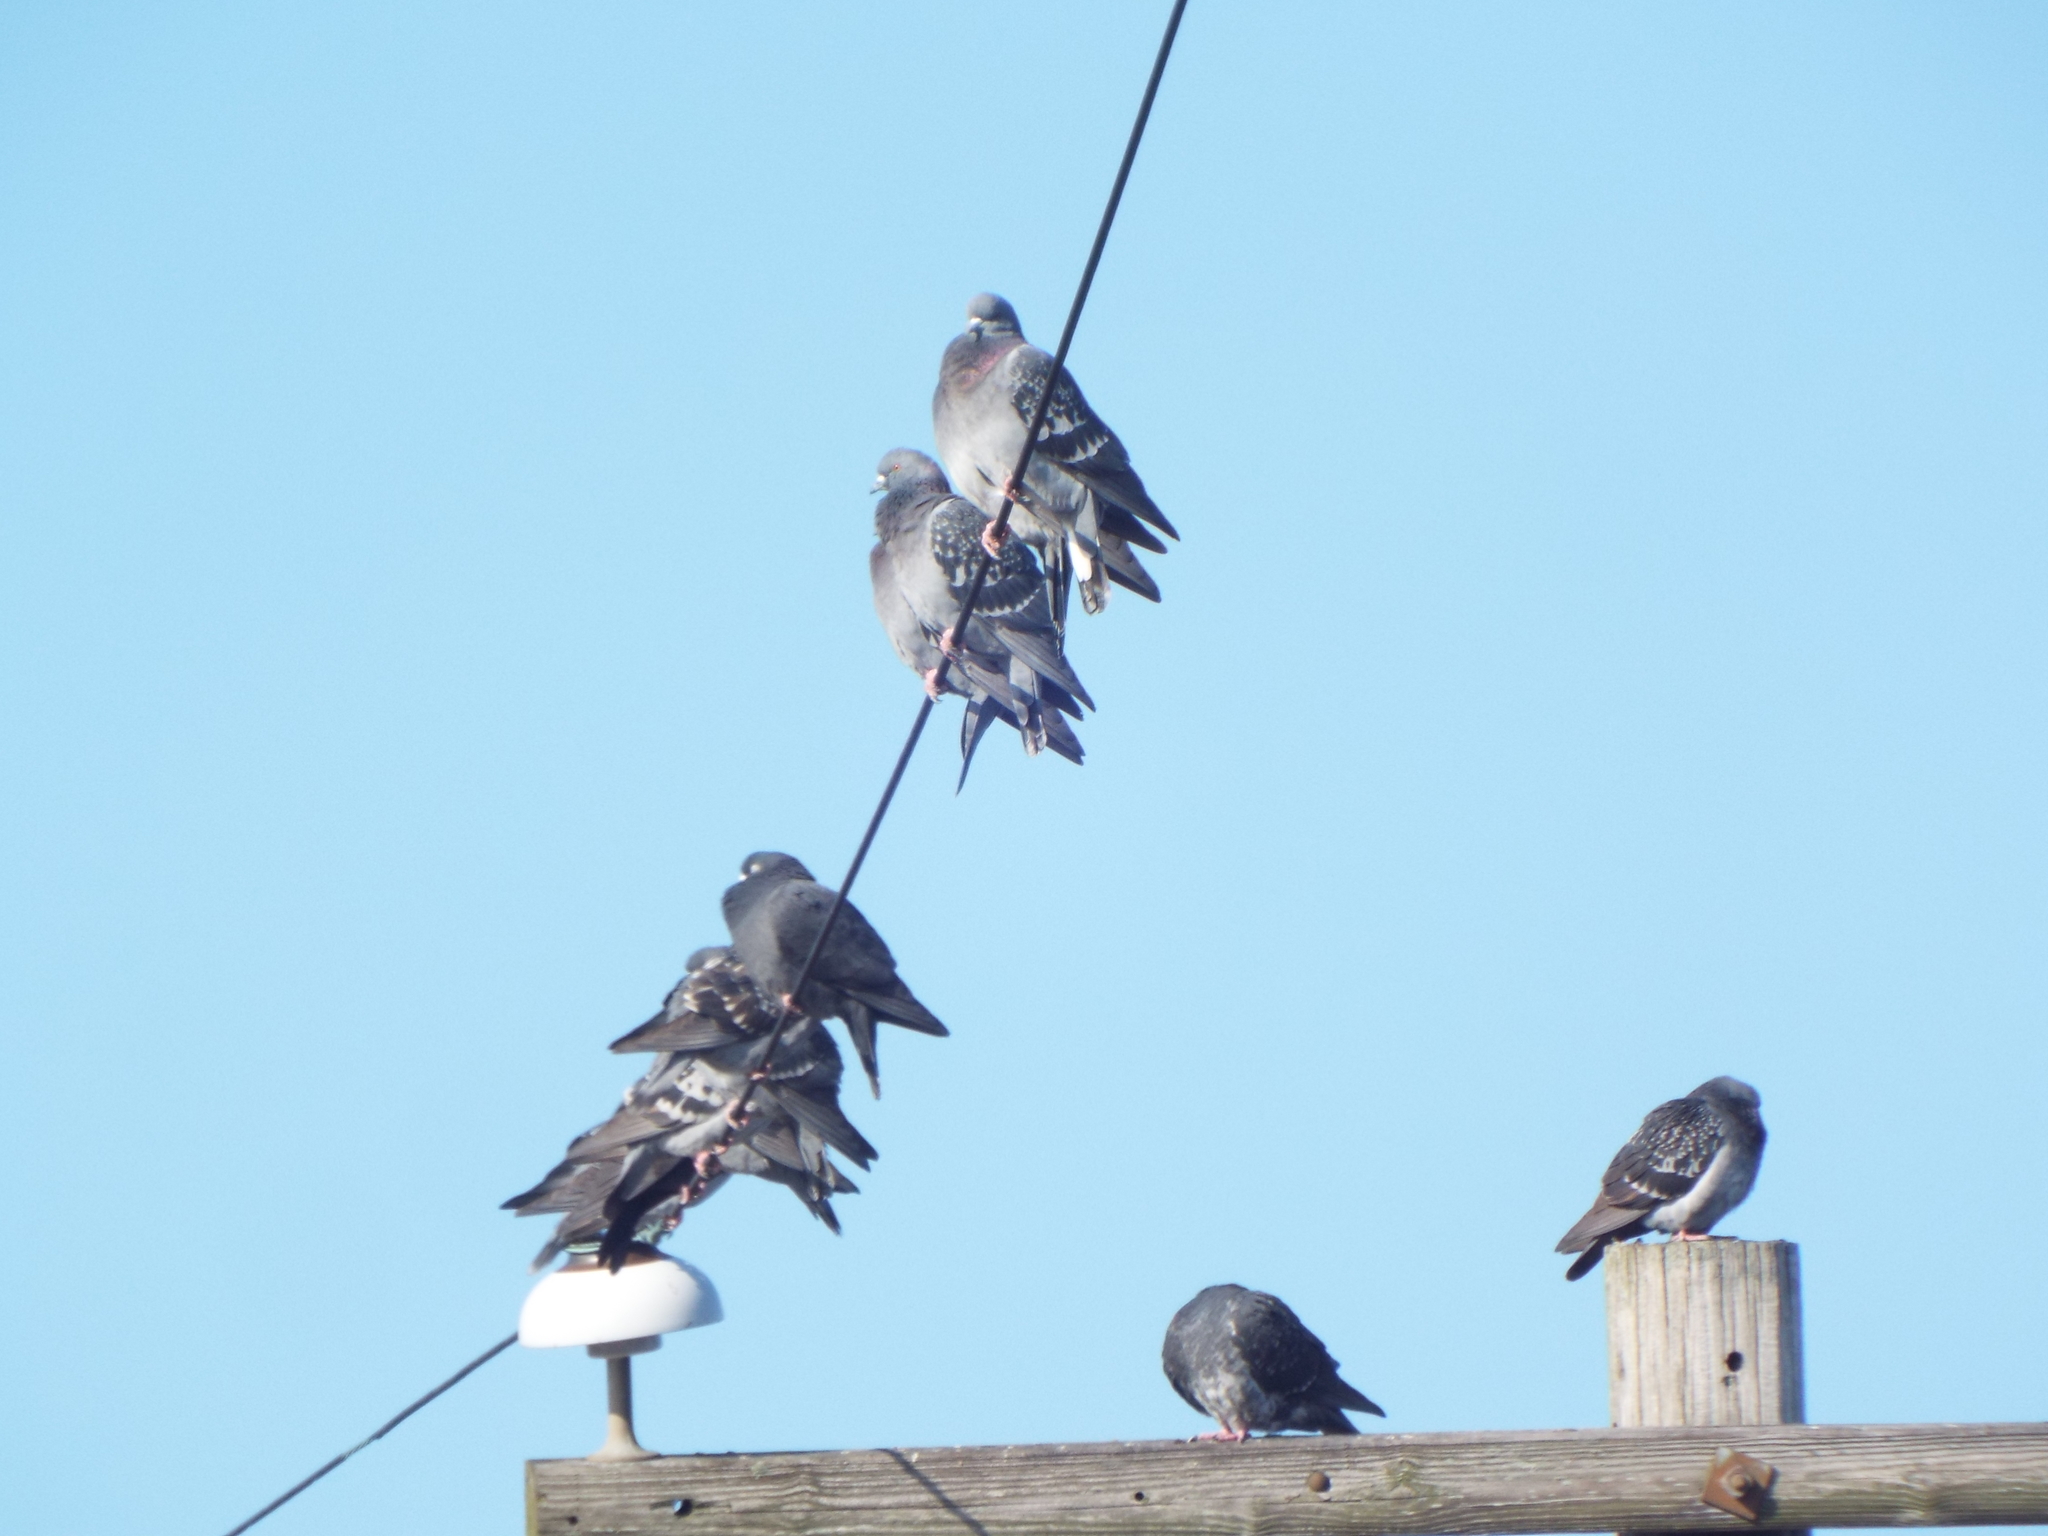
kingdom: Animalia
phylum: Chordata
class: Aves
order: Columbiformes
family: Columbidae
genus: Columba
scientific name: Columba livia
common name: Rock pigeon
